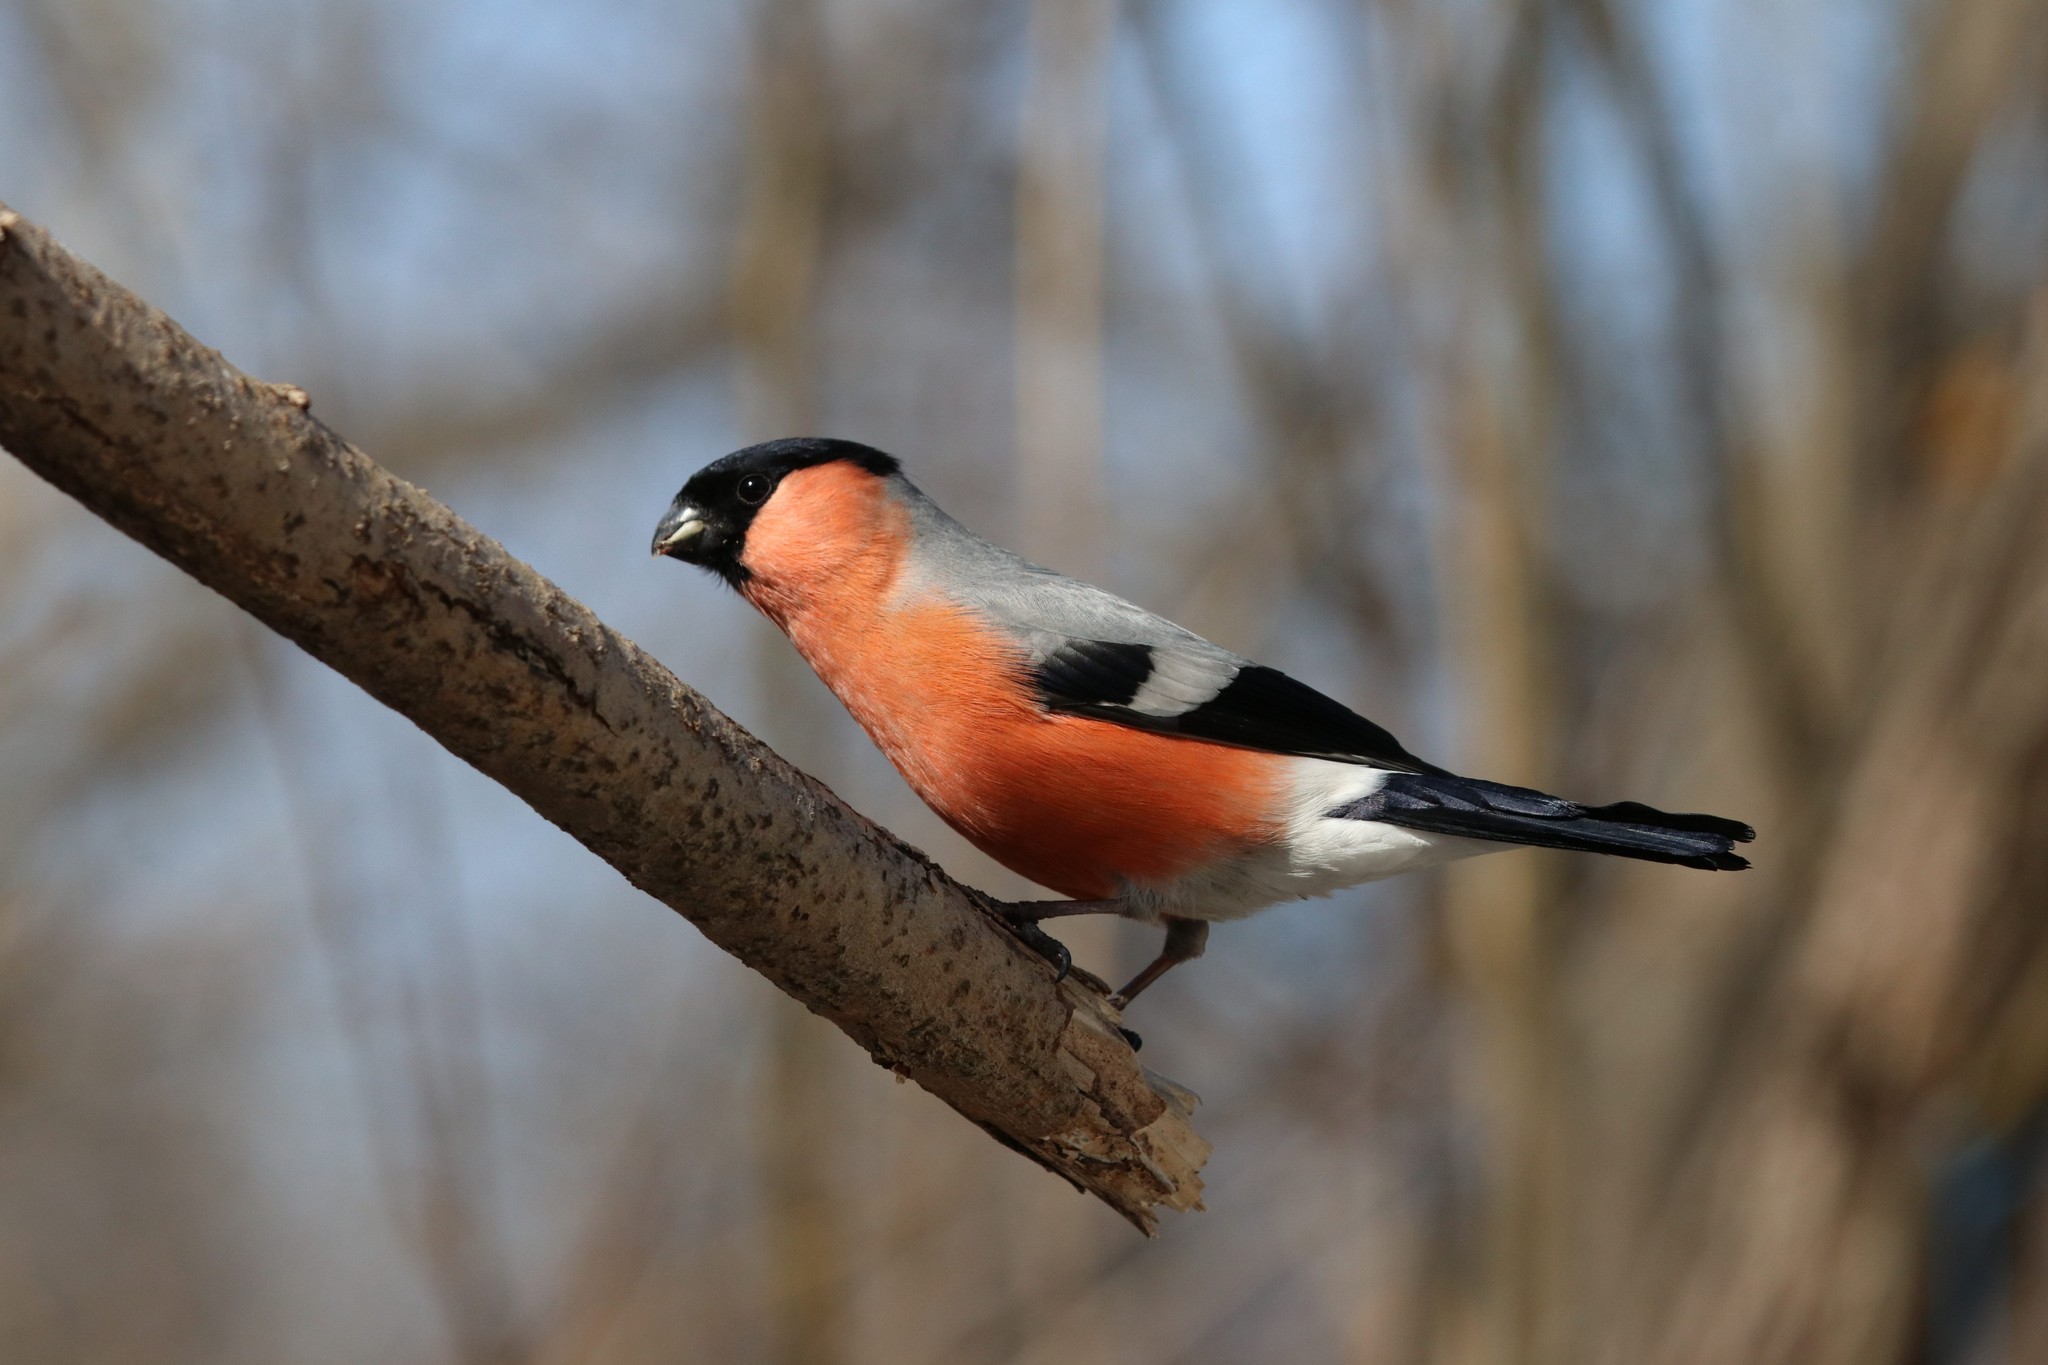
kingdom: Animalia
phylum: Chordata
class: Aves
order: Passeriformes
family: Fringillidae
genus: Pyrrhula
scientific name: Pyrrhula pyrrhula
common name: Eurasian bullfinch
